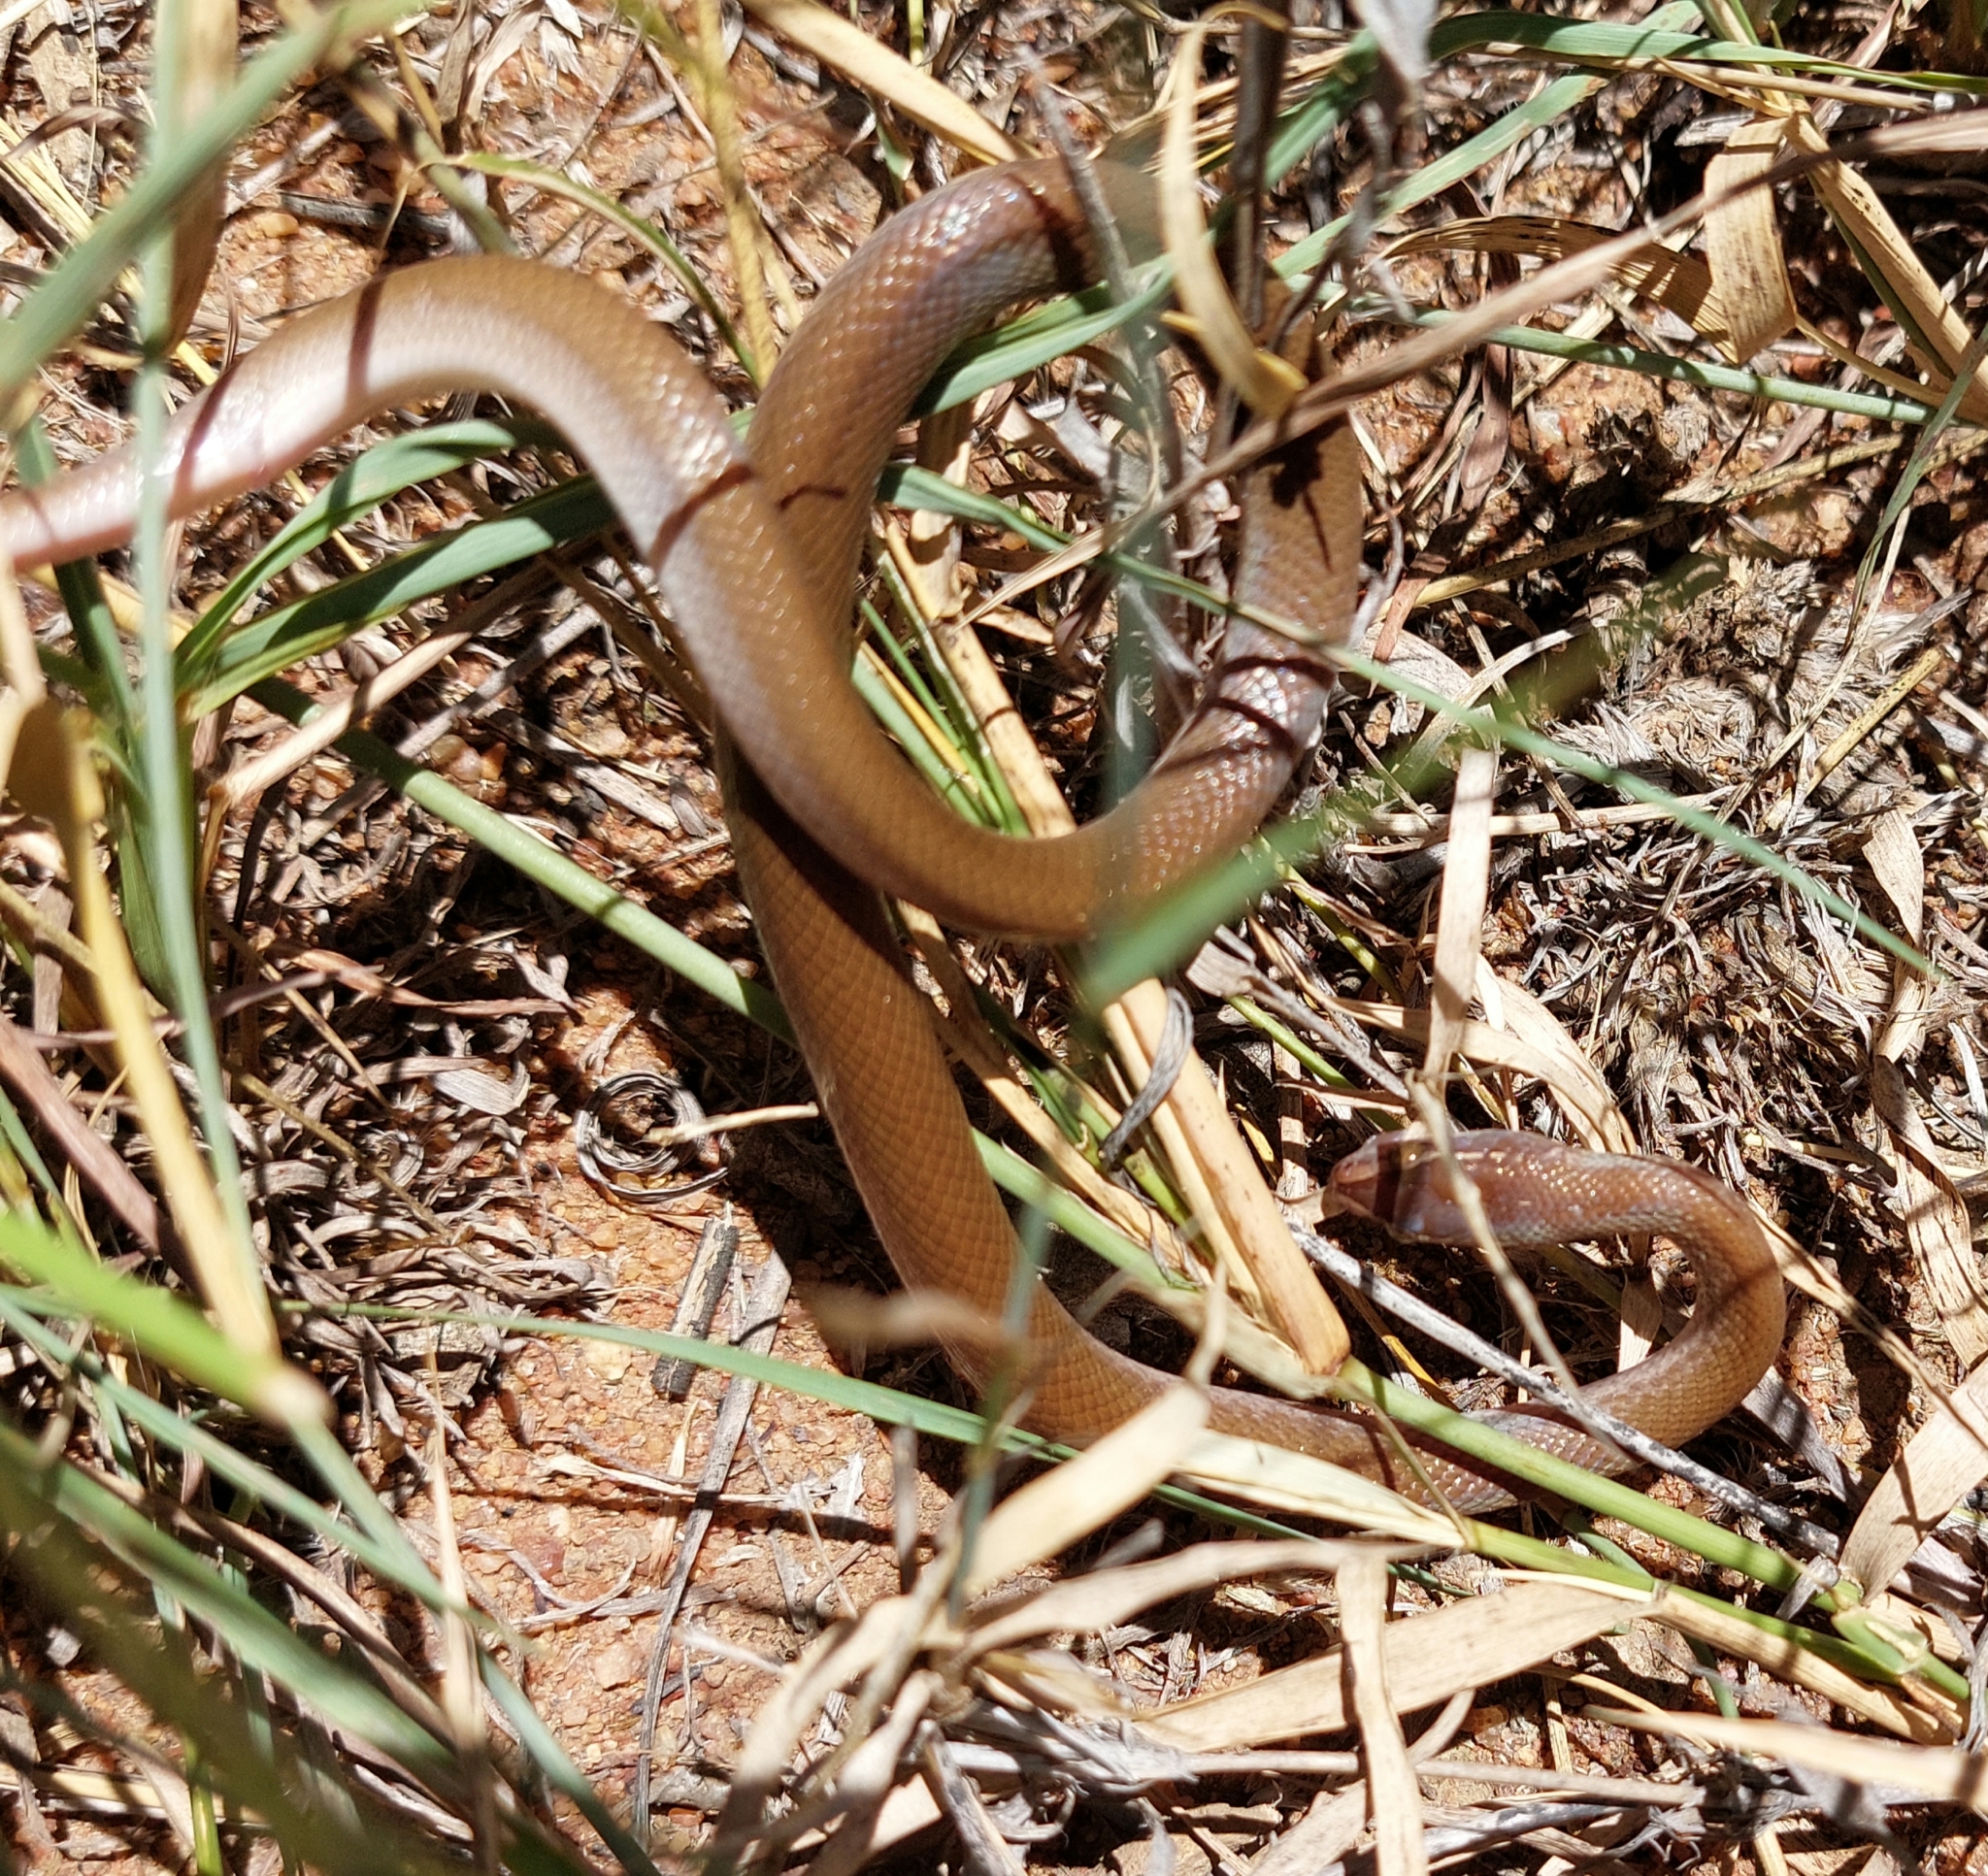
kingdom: Animalia
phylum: Chordata
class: Squamata
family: Lamprophiidae
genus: Boaedon
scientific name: Boaedon capensis
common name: Brown house snake
